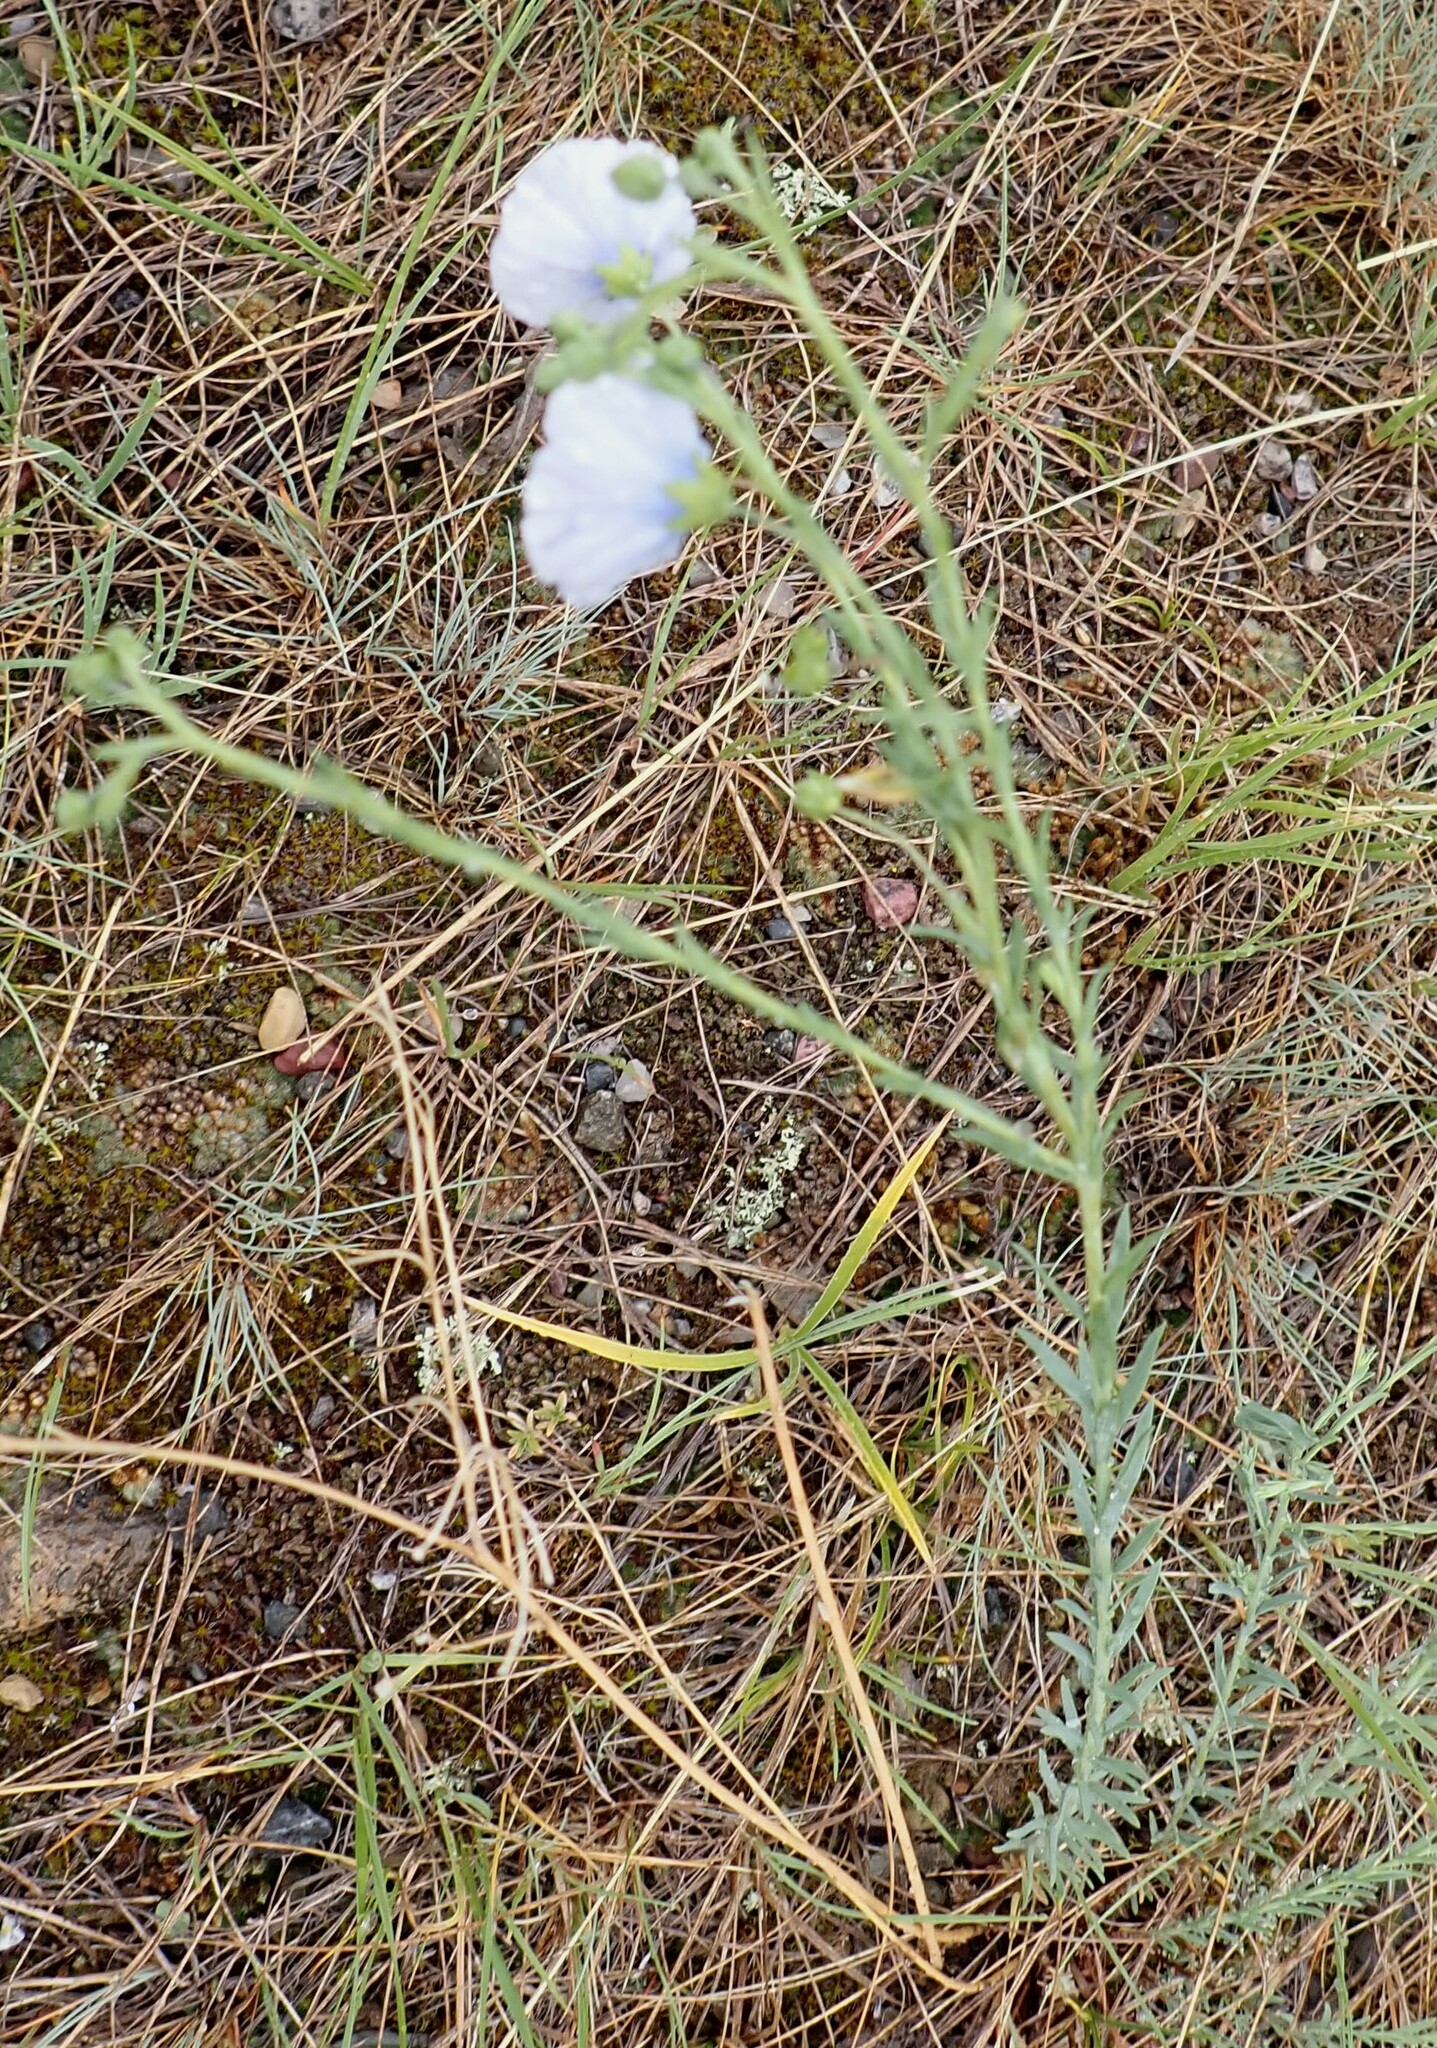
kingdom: Plantae
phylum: Tracheophyta
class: Magnoliopsida
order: Malpighiales
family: Linaceae
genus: Linum
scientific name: Linum lewisii
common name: Prairie flax
